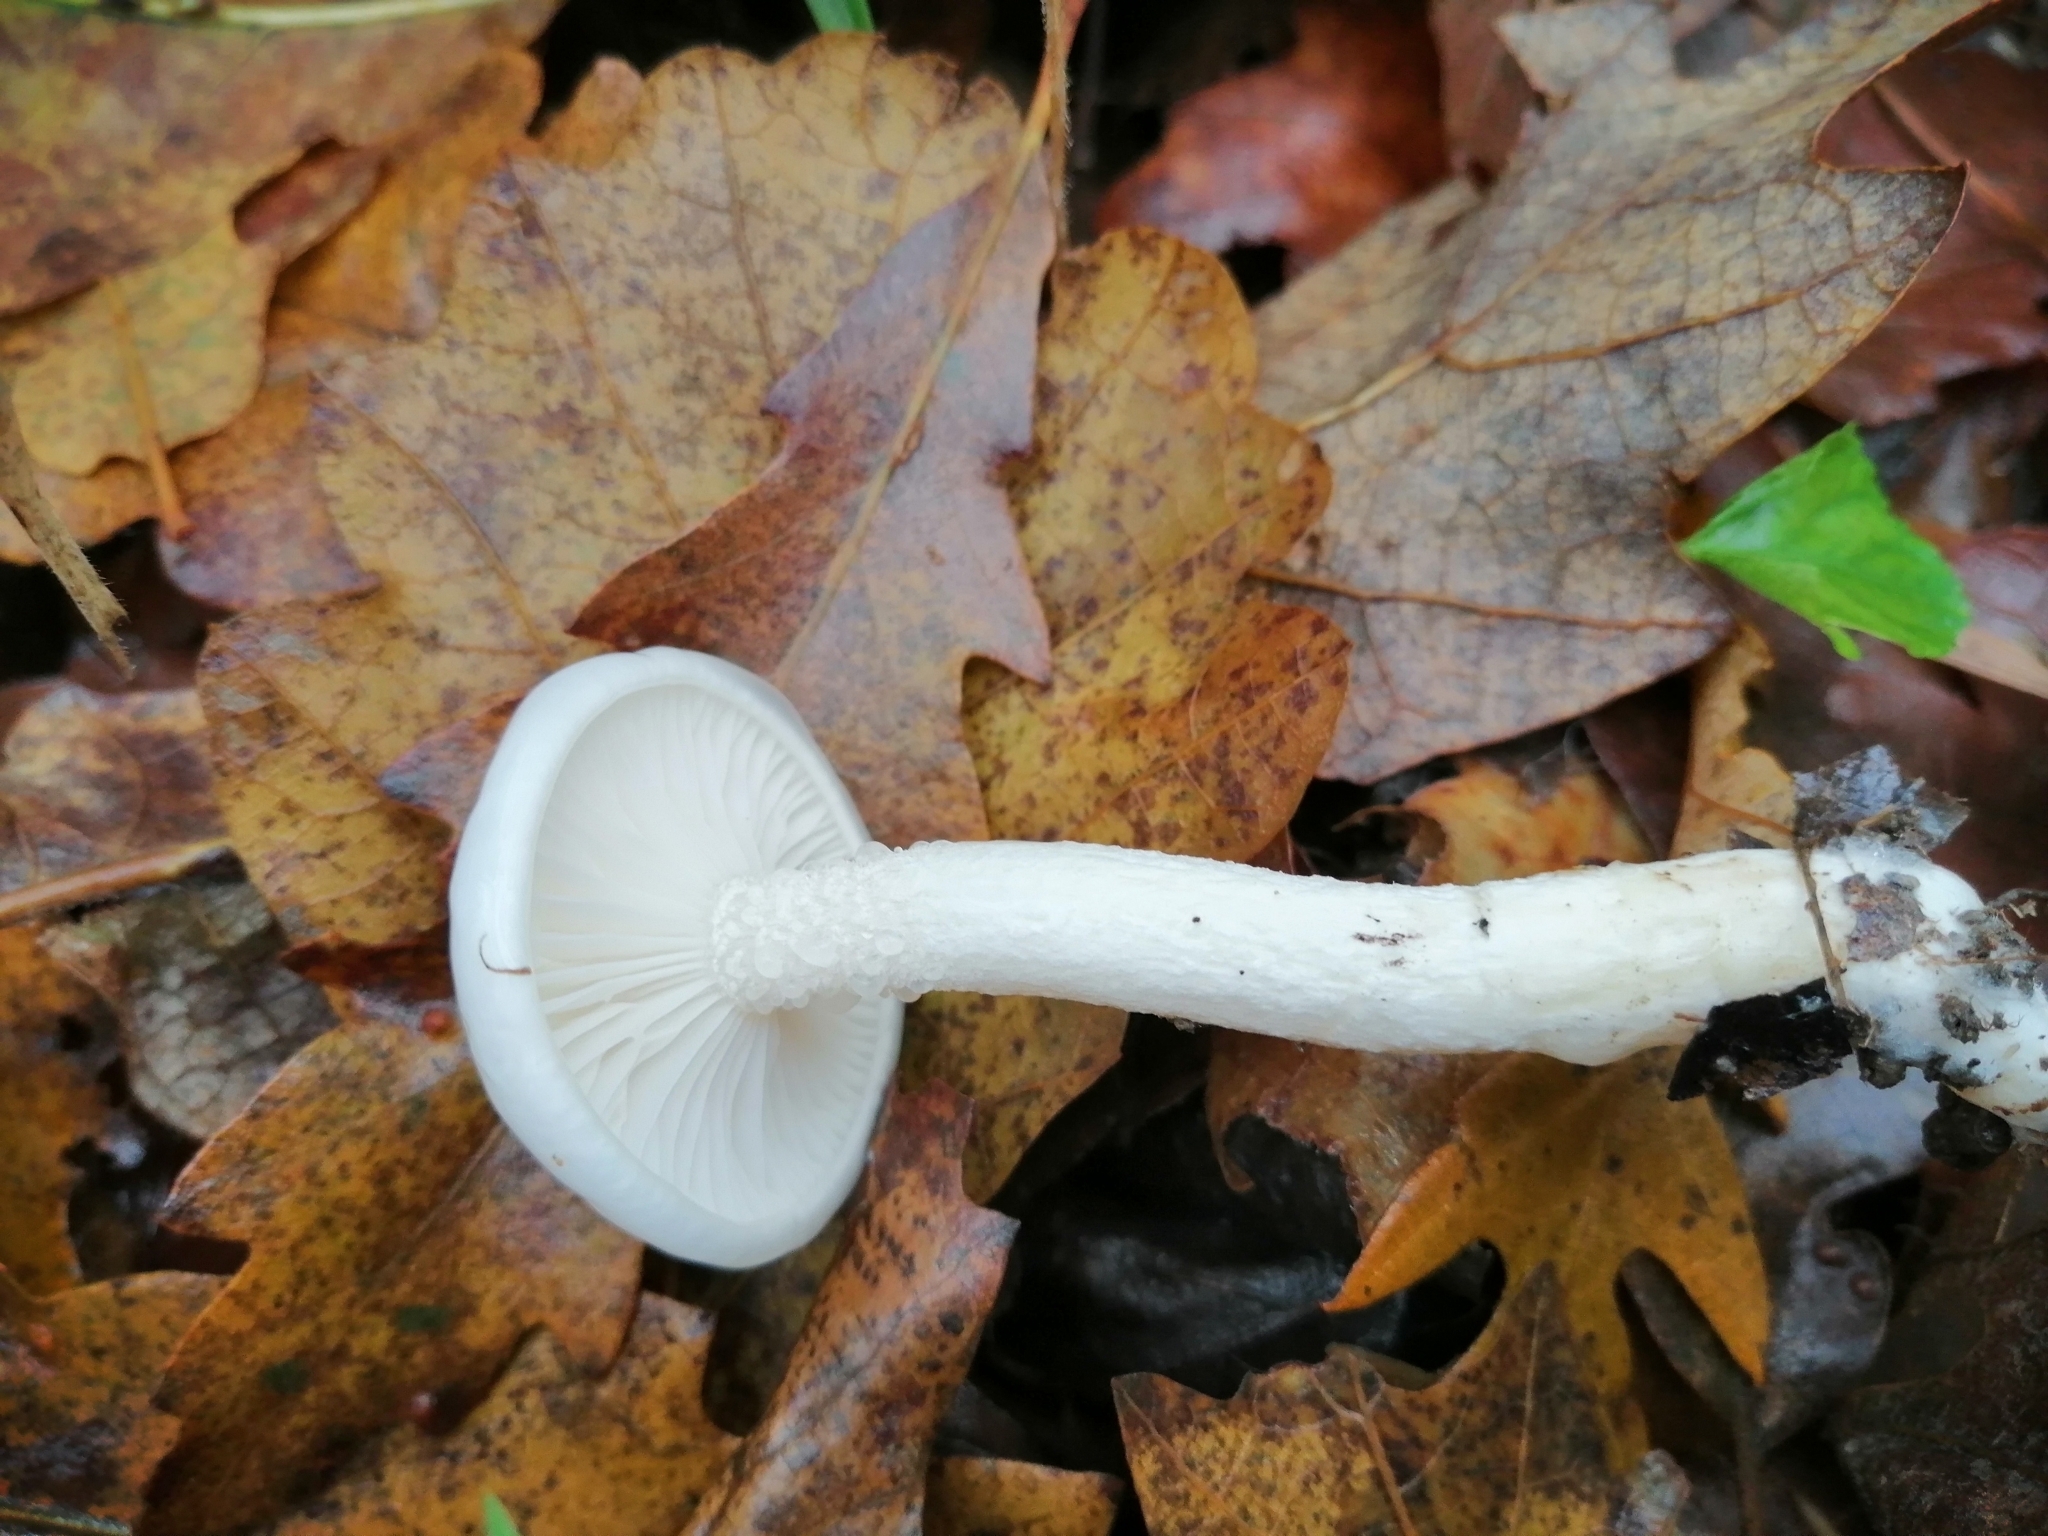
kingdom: Fungi
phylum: Basidiomycota
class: Agaricomycetes
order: Agaricales
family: Hygrophoraceae
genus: Hygrophorus
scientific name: Hygrophorus cossus
